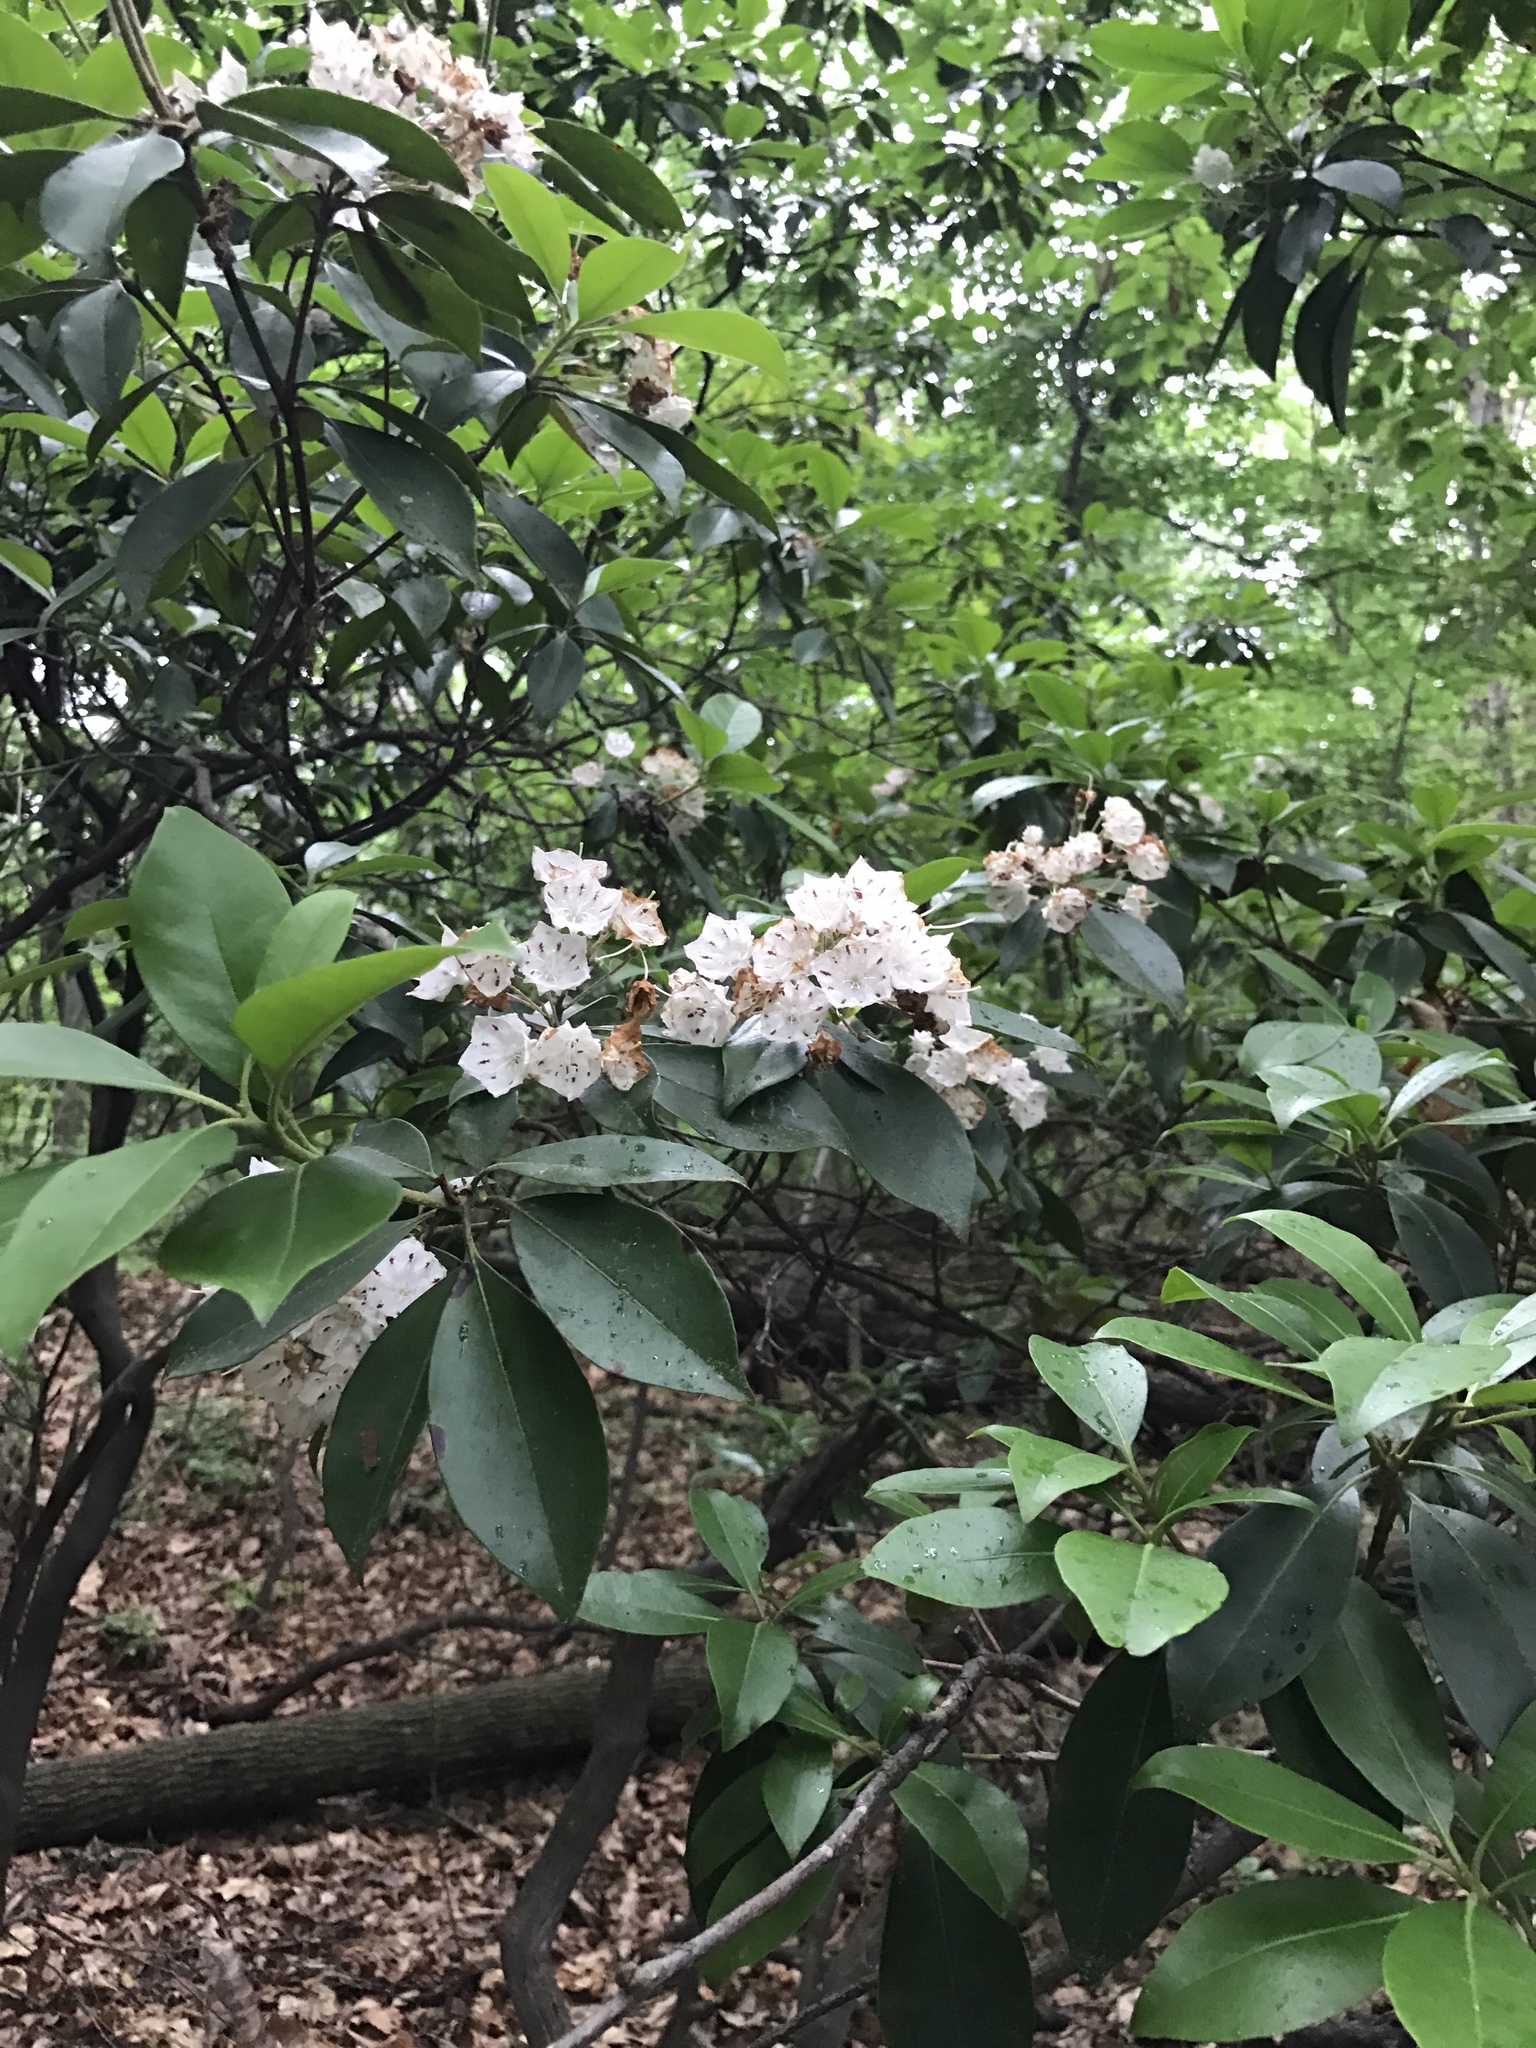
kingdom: Plantae
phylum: Tracheophyta
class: Magnoliopsida
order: Ericales
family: Ericaceae
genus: Kalmia
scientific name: Kalmia latifolia
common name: Mountain-laurel
